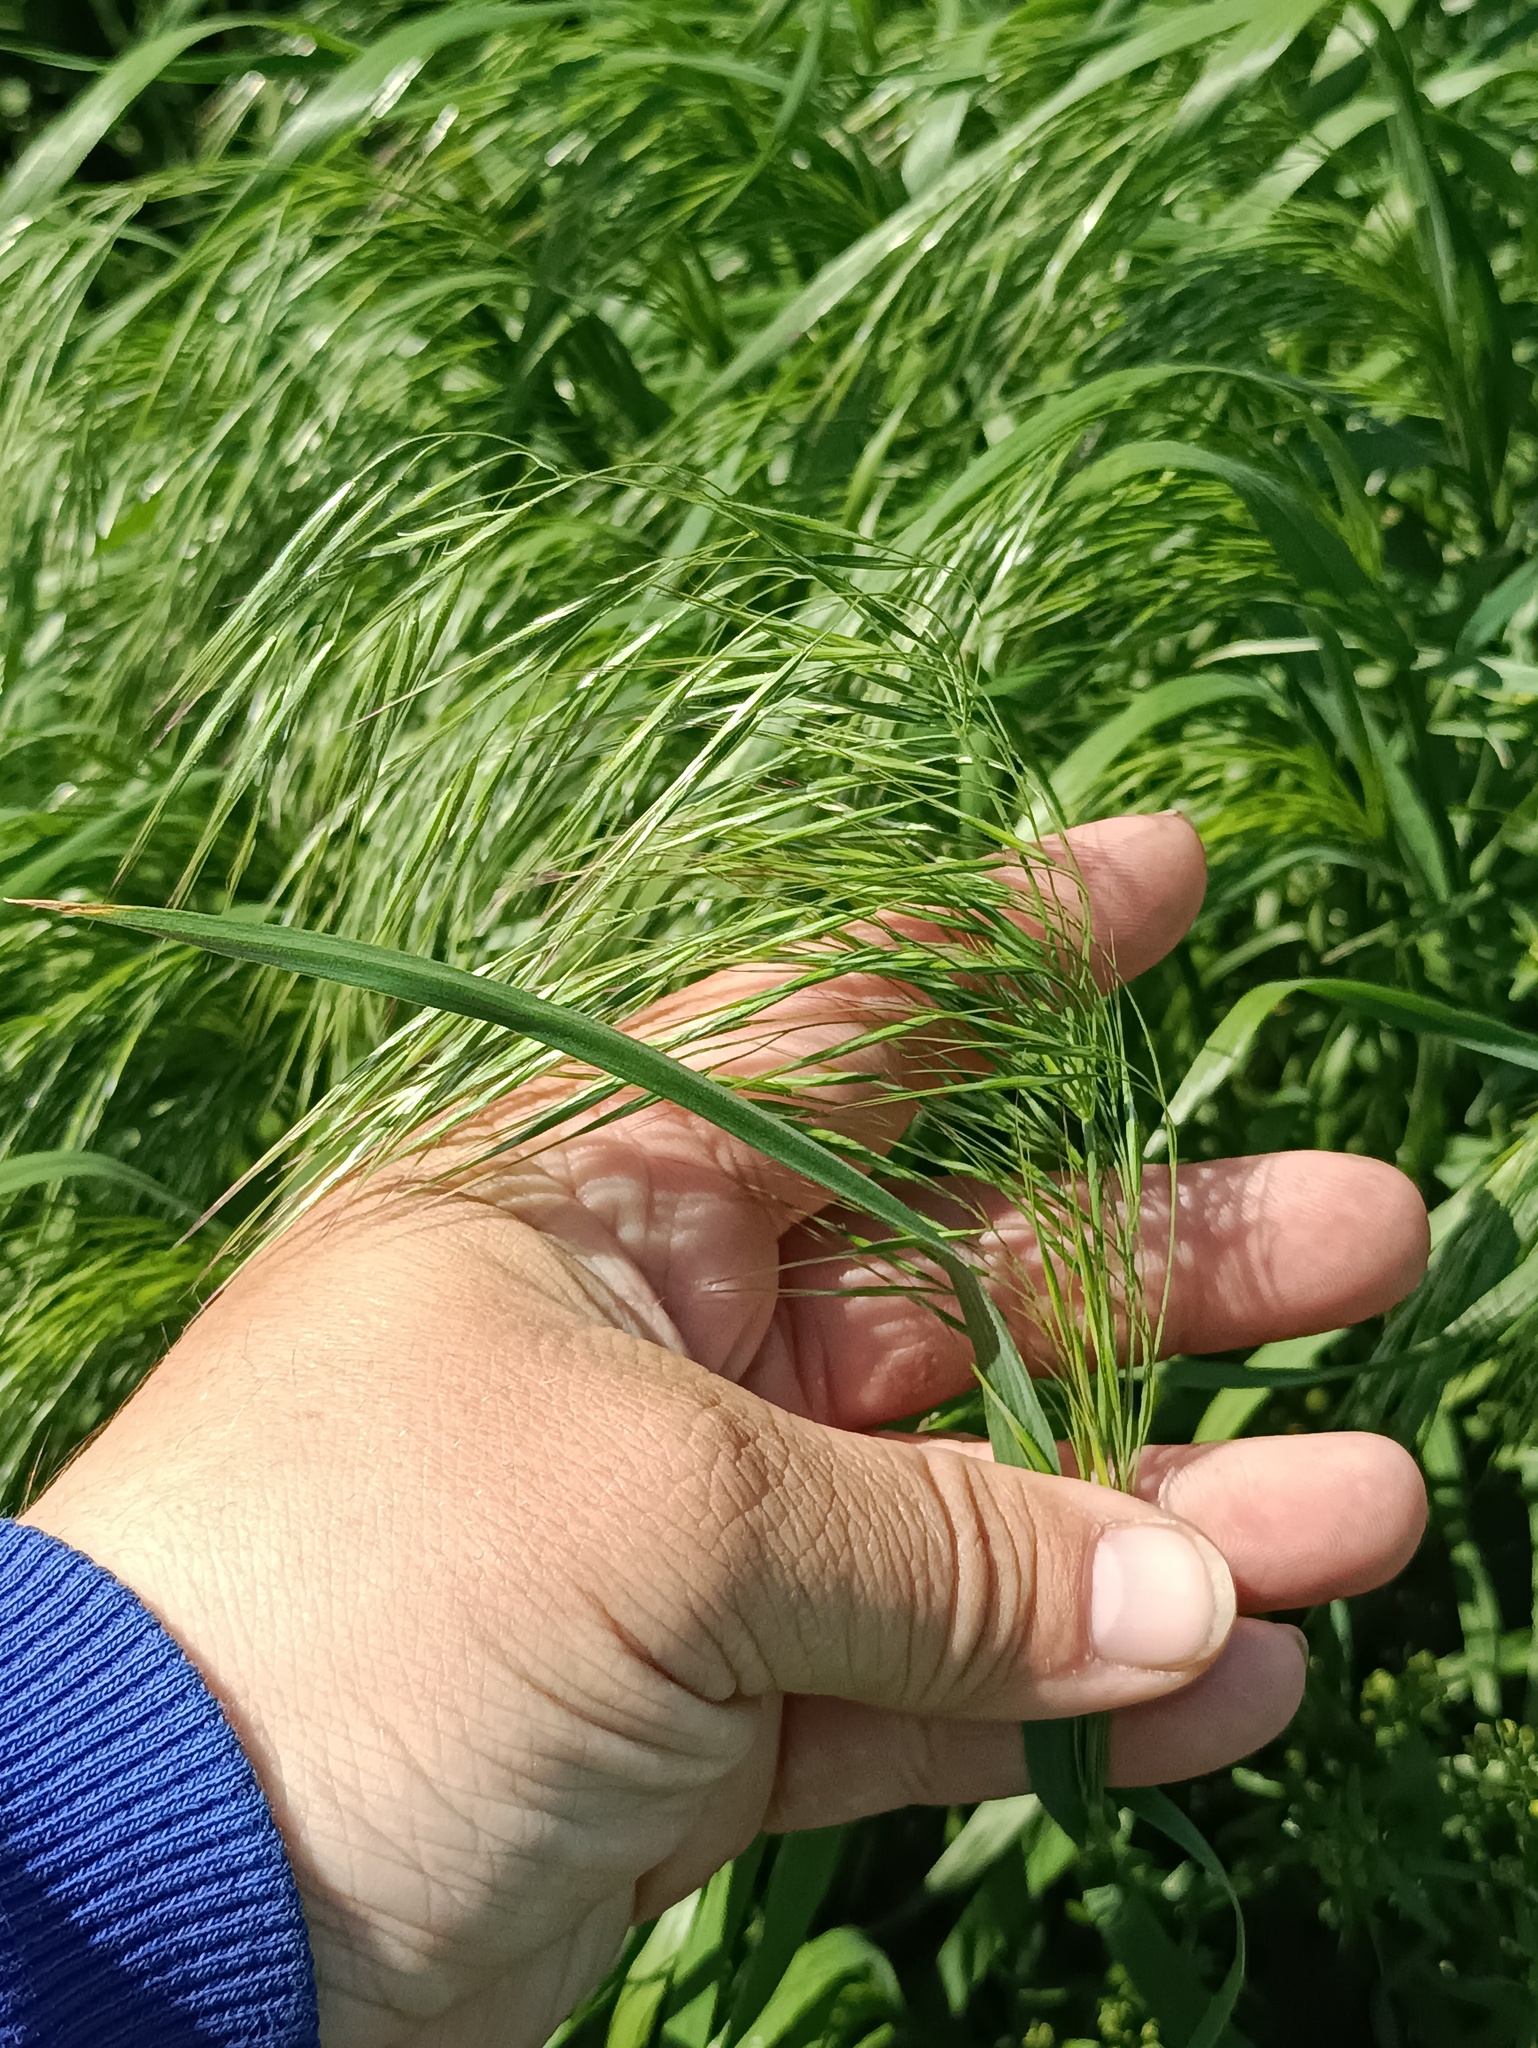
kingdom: Plantae
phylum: Tracheophyta
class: Liliopsida
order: Poales
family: Poaceae
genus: Bromus
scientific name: Bromus tectorum
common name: Cheatgrass
